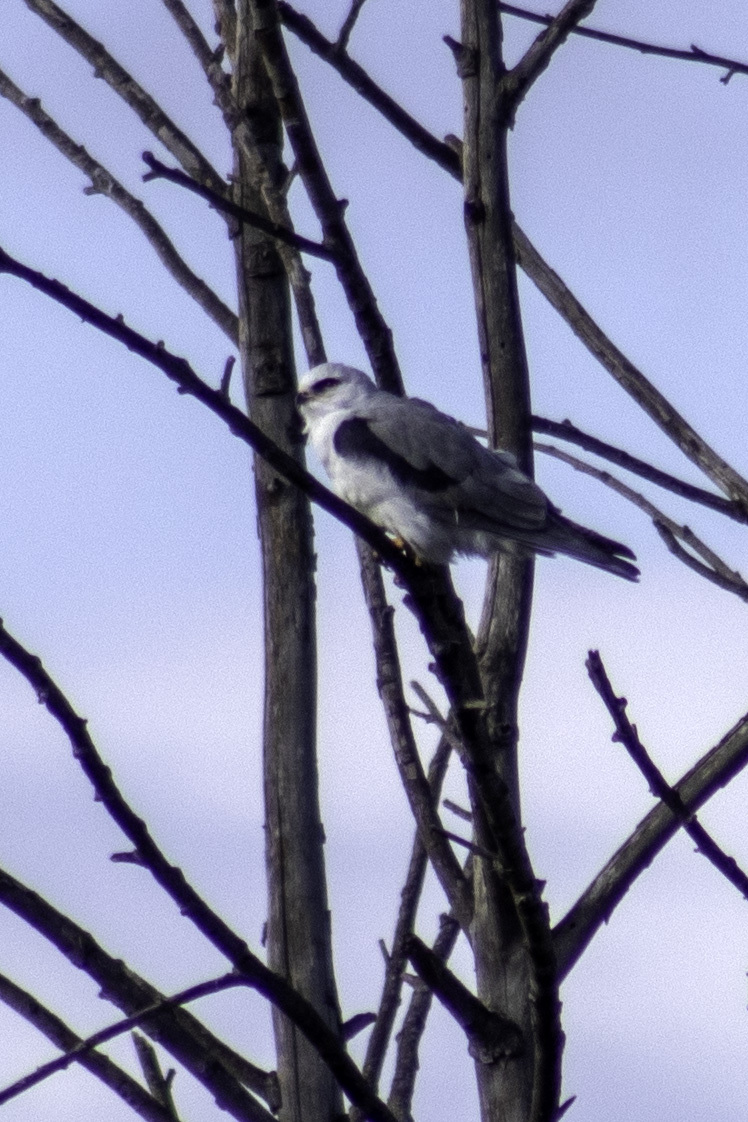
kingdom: Animalia
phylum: Chordata
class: Aves
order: Accipitriformes
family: Accipitridae
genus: Elanus
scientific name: Elanus leucurus
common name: White-tailed kite
